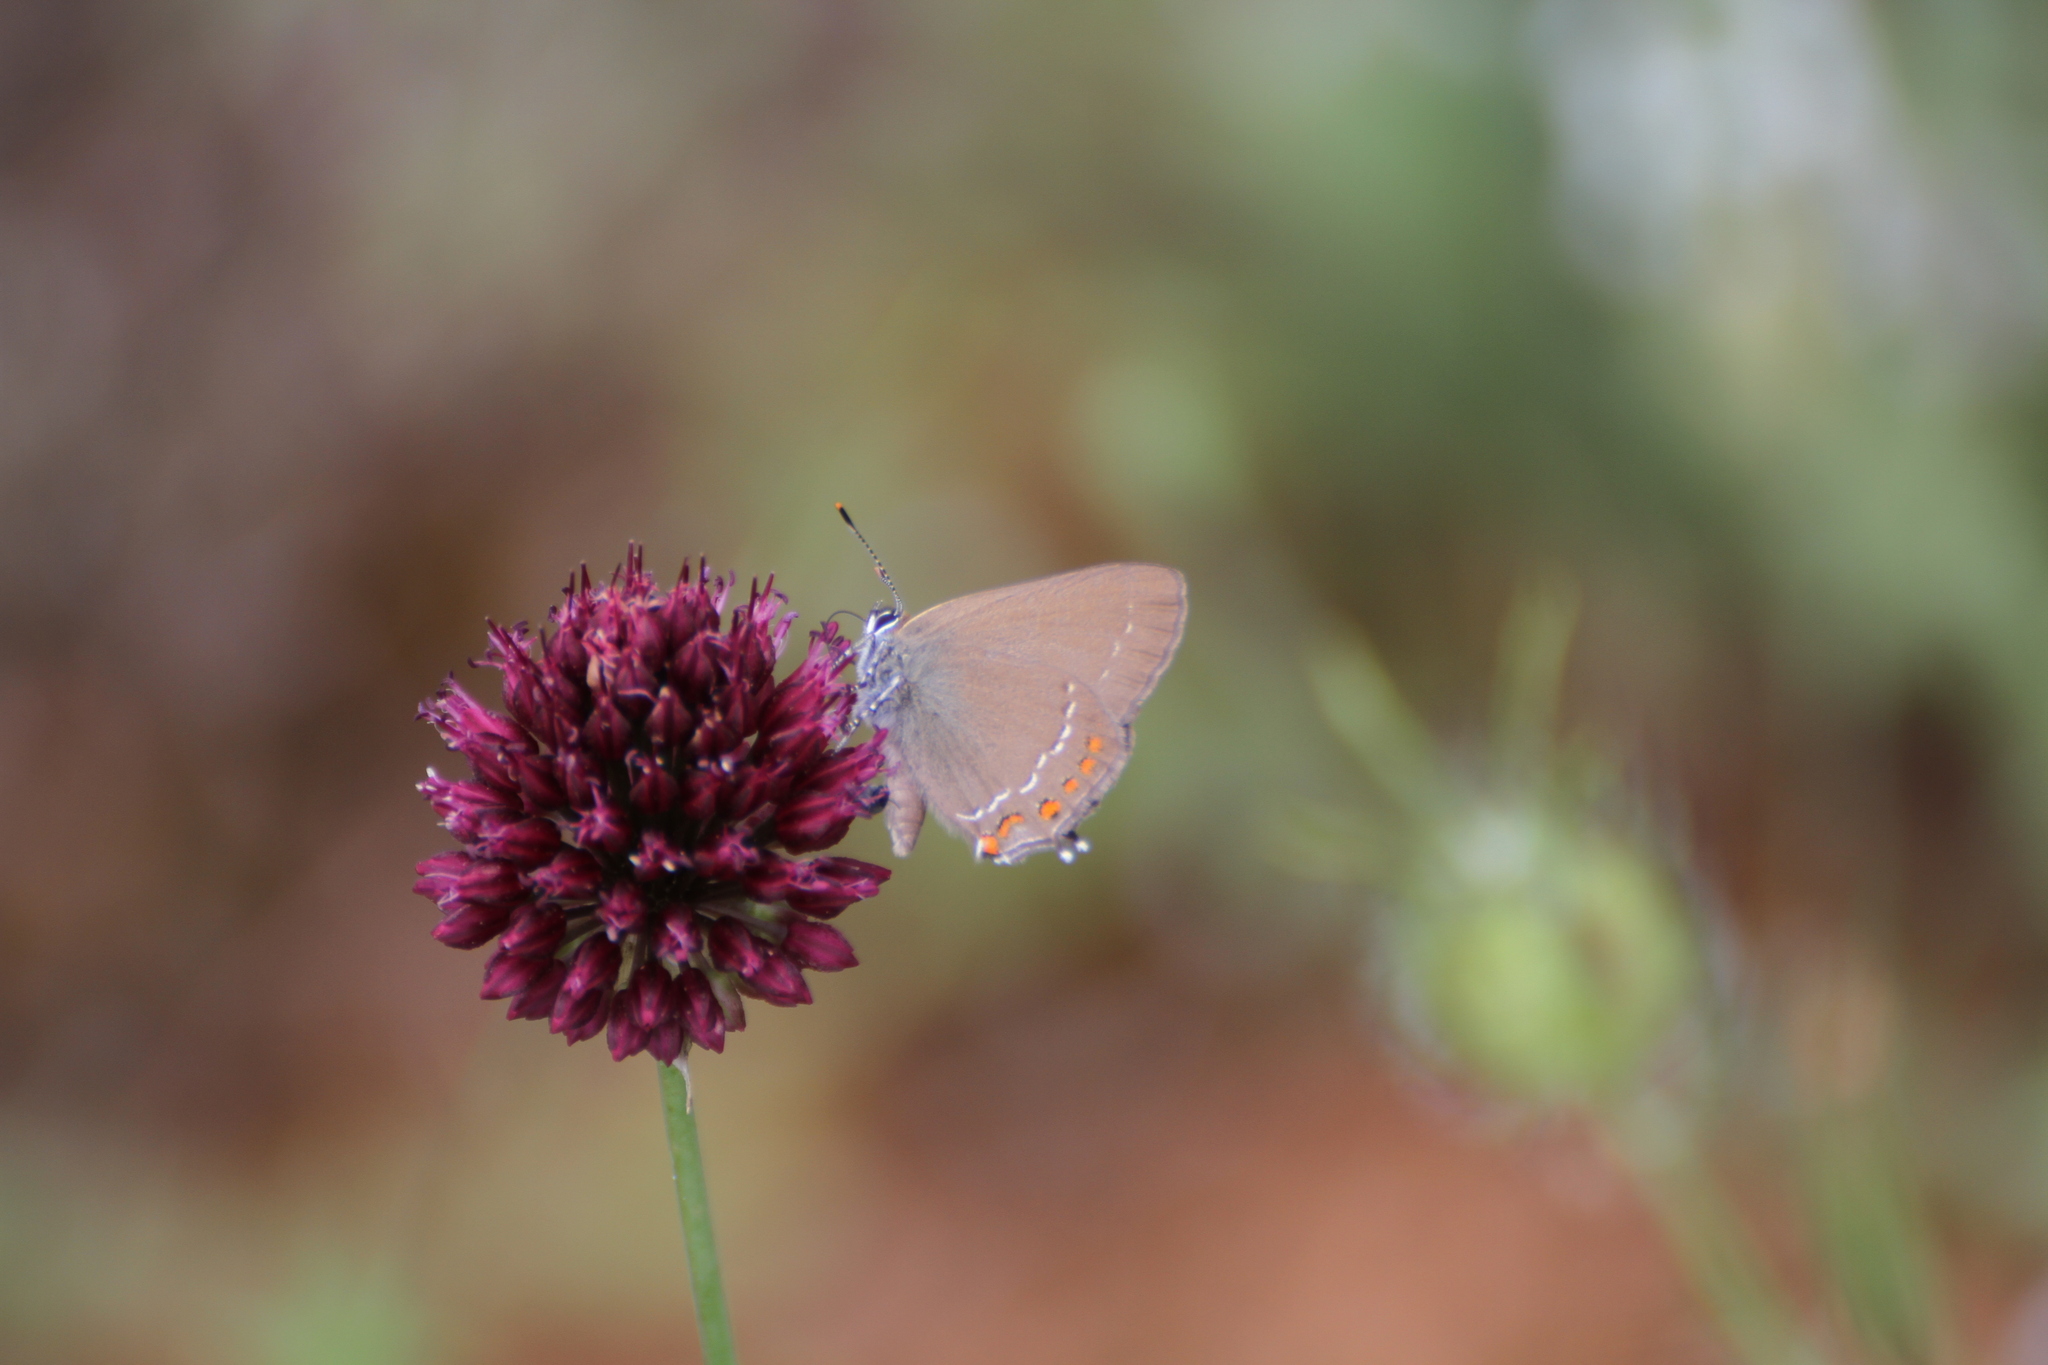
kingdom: Animalia
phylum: Arthropoda
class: Insecta
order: Lepidoptera
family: Lycaenidae
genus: Fixsenia
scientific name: Fixsenia esculi
